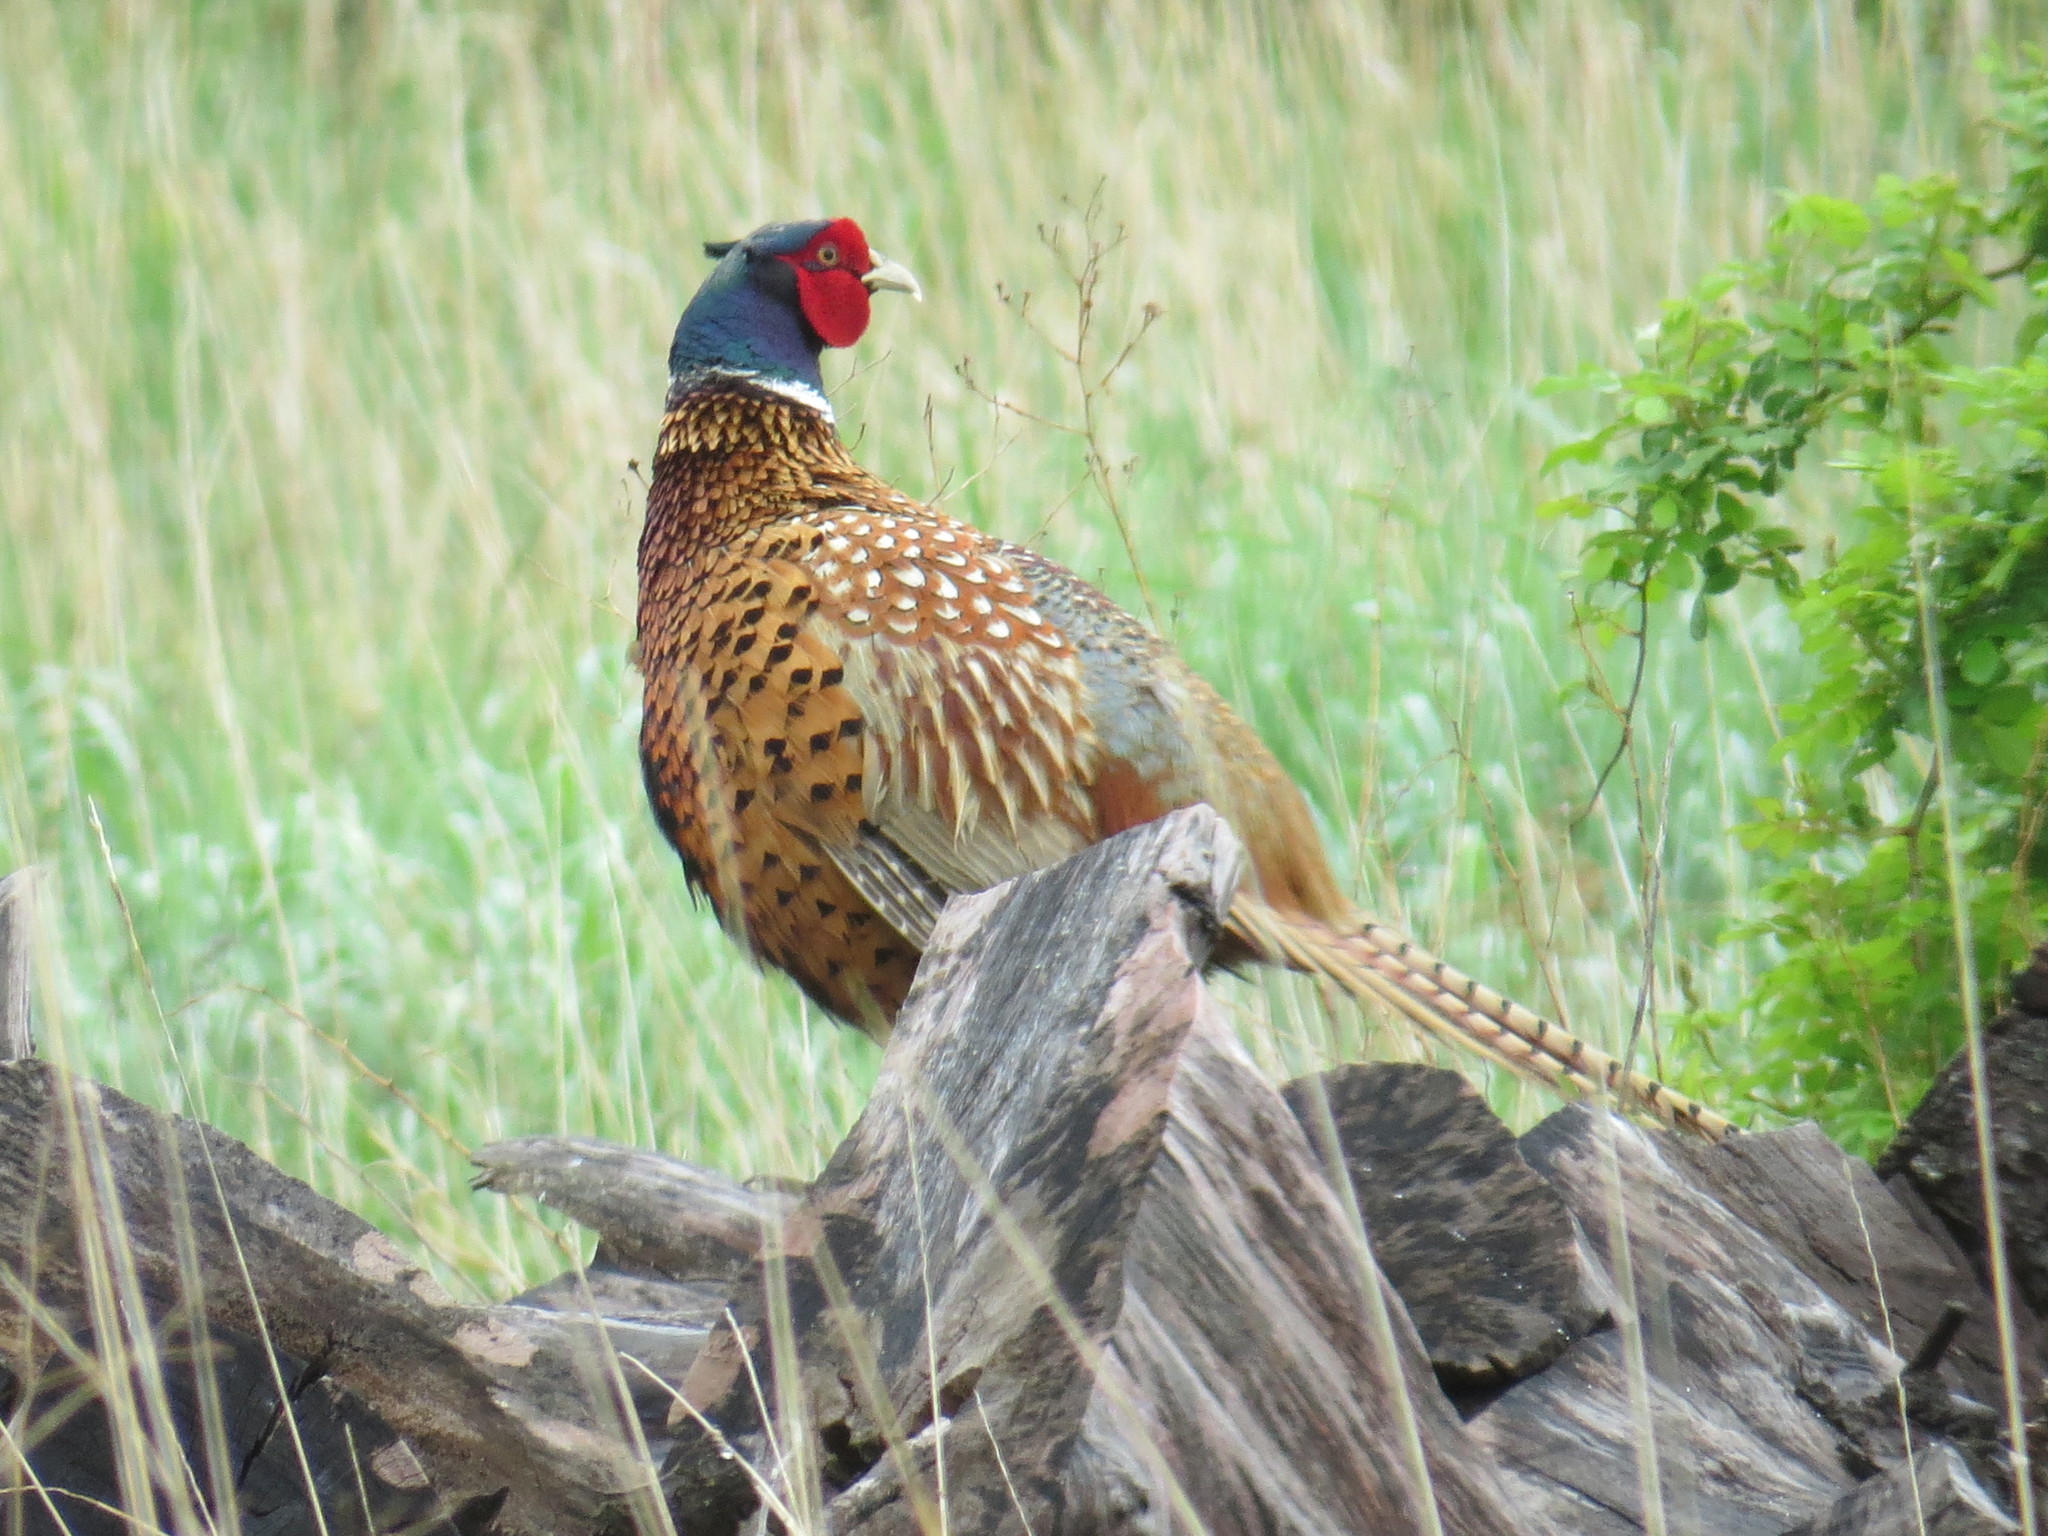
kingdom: Animalia
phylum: Chordata
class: Aves
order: Galliformes
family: Phasianidae
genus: Phasianus
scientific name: Phasianus colchicus
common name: Common pheasant
